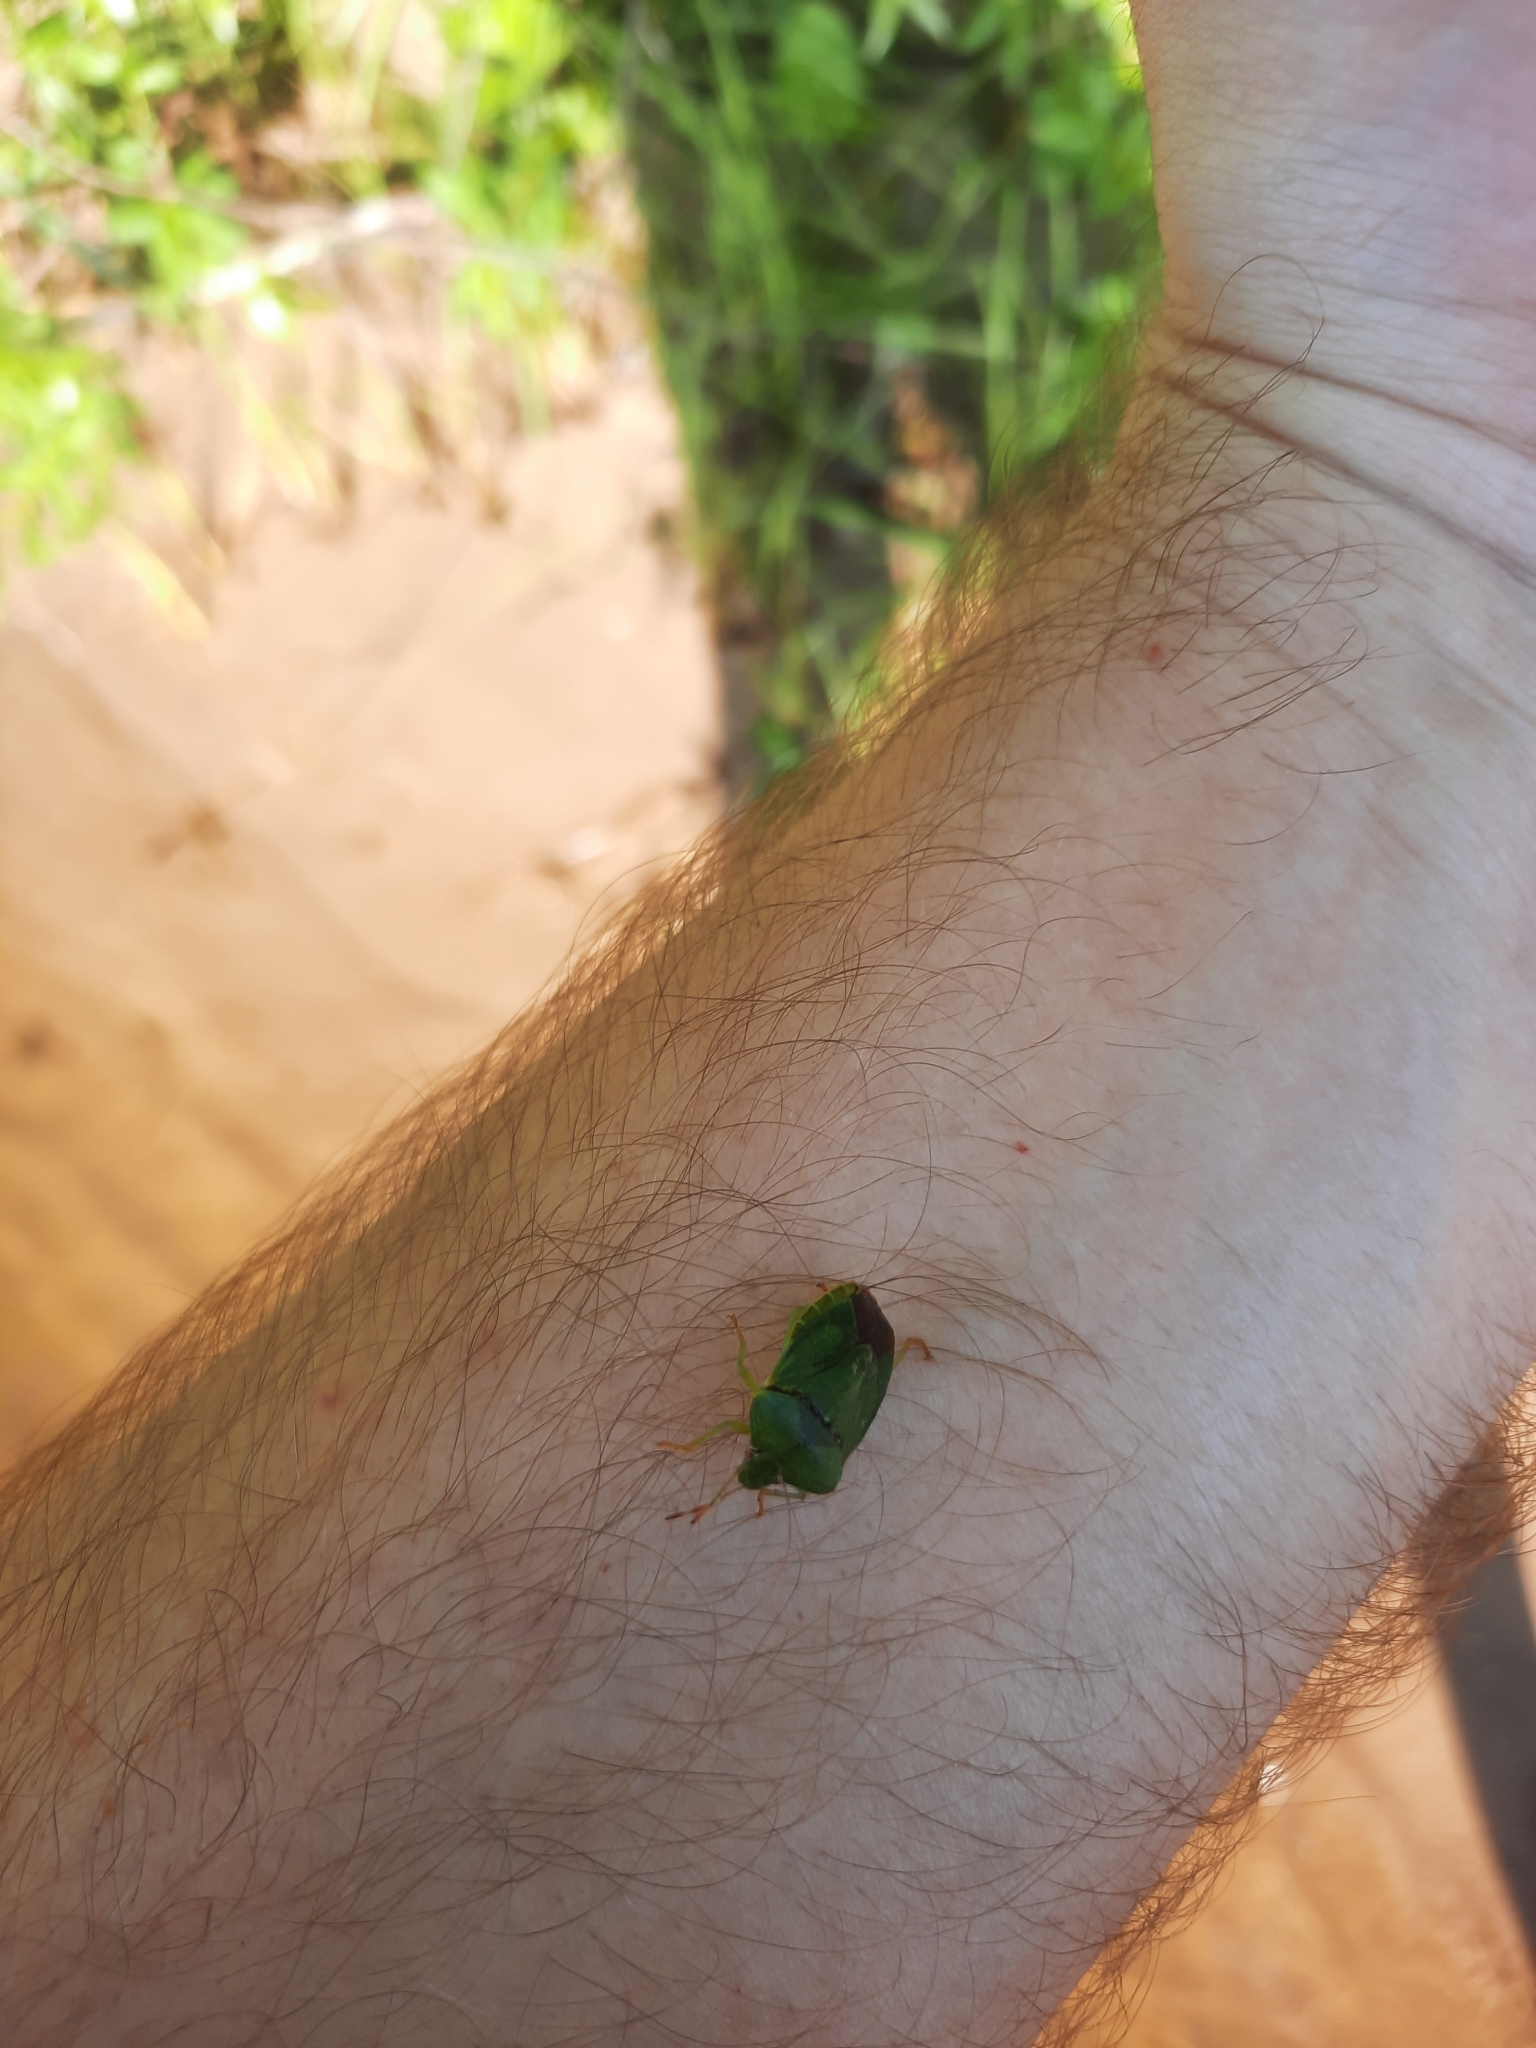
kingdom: Animalia
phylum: Arthropoda
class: Insecta
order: Hemiptera
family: Pentatomidae
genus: Palomena
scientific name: Palomena prasina
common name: Green shieldbug
